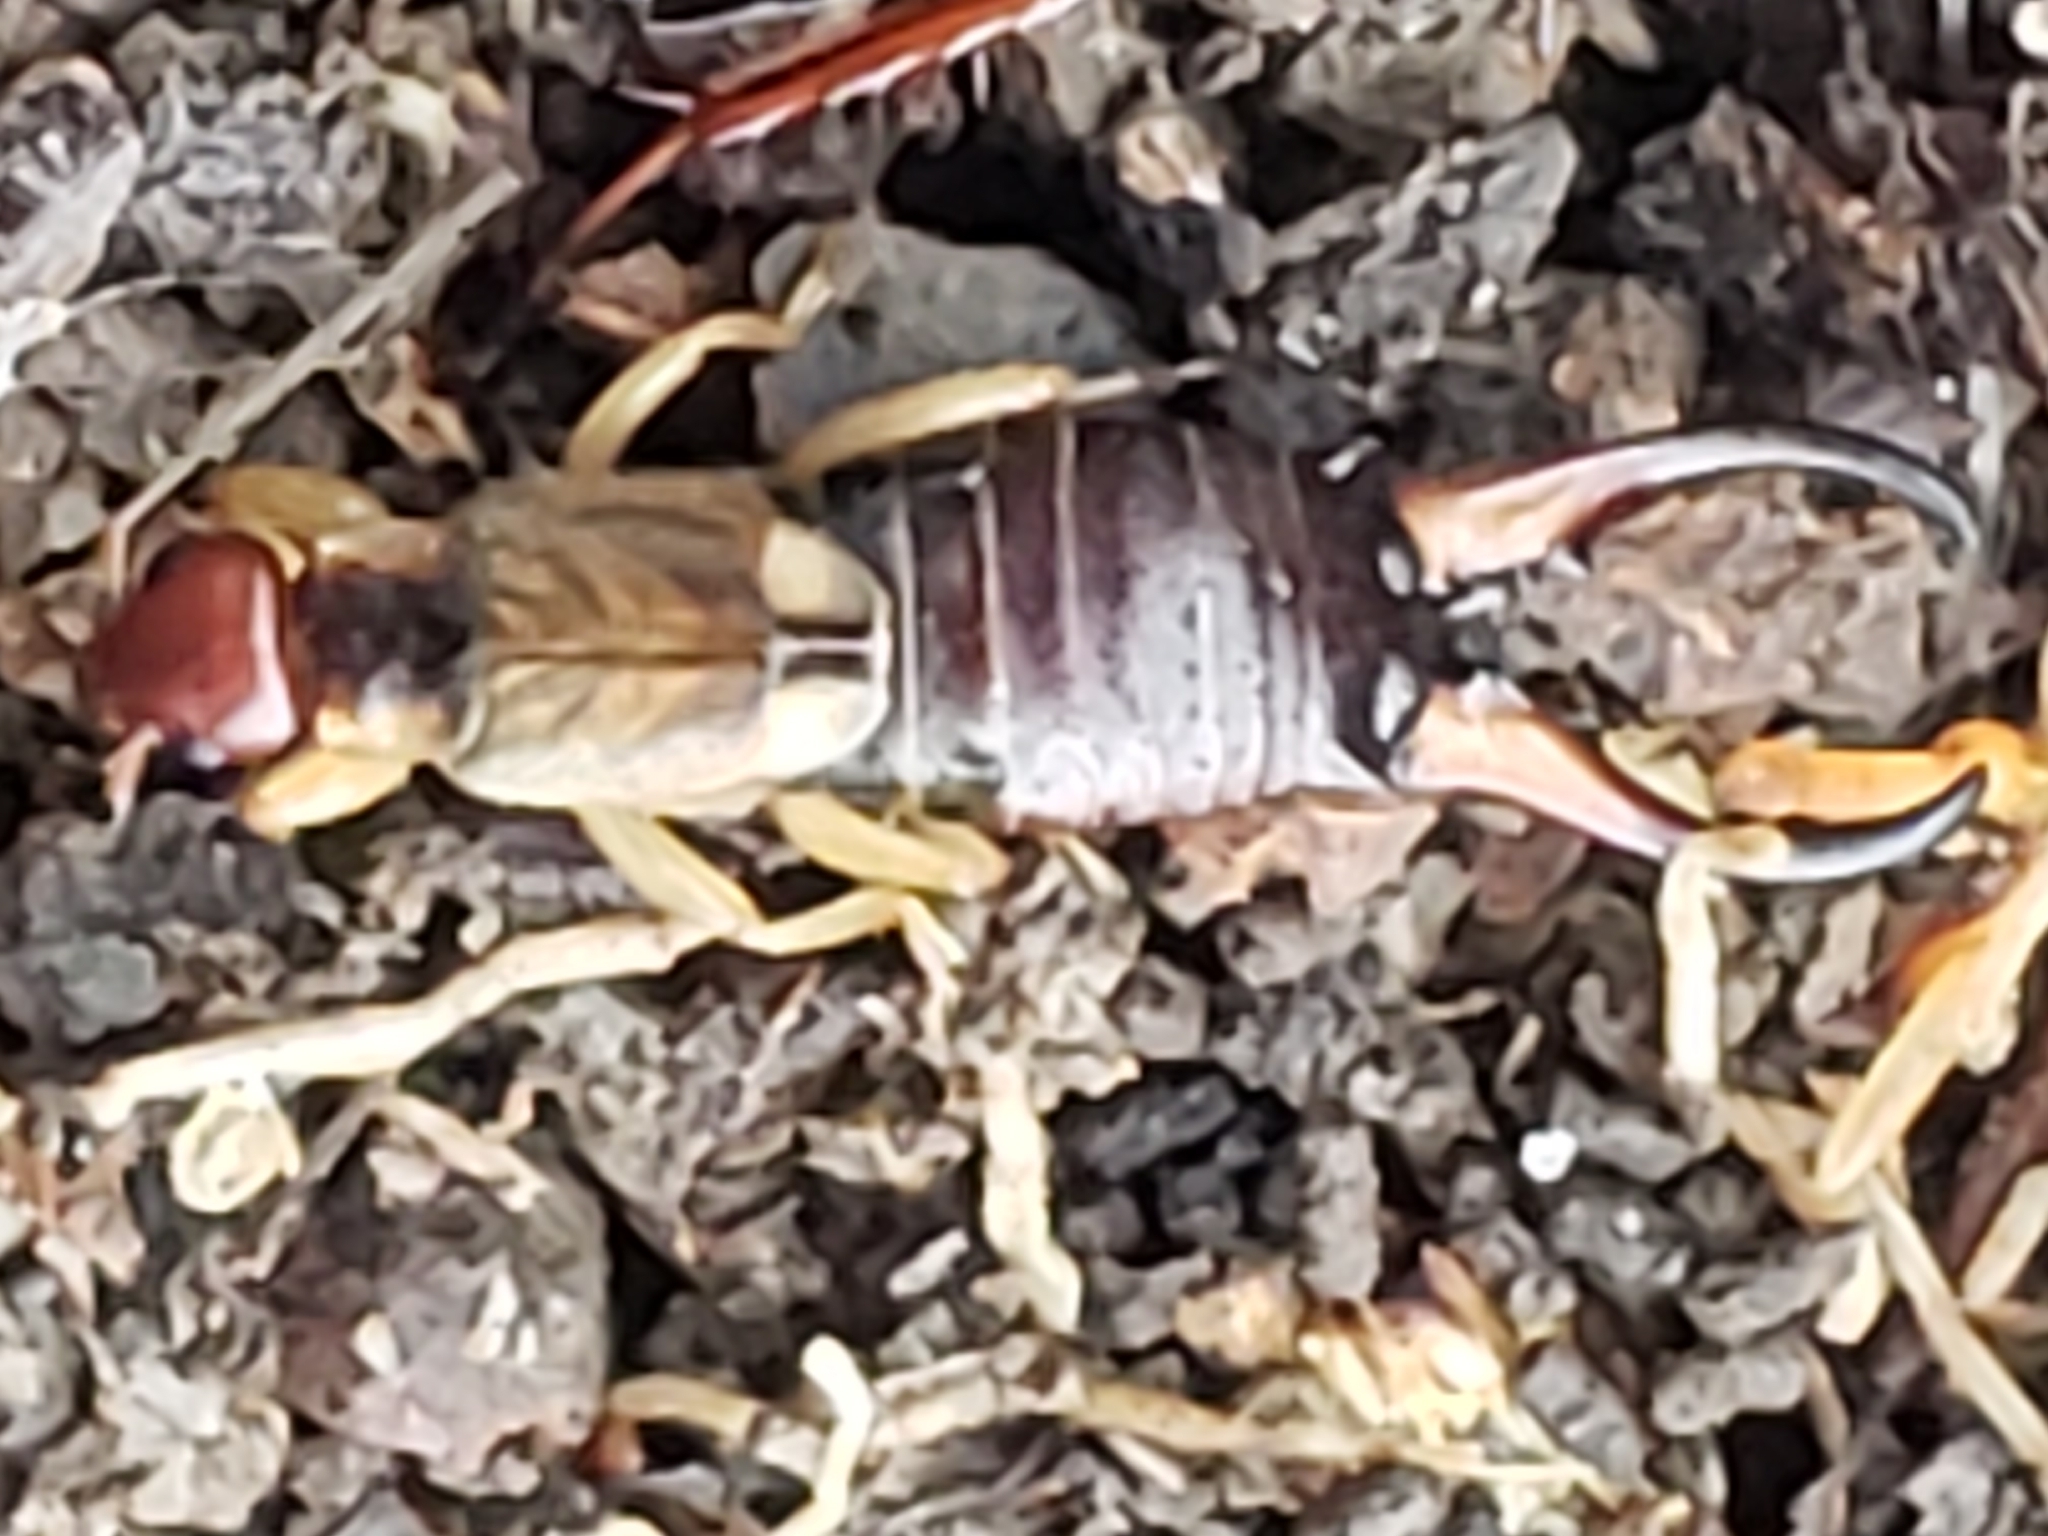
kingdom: Animalia
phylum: Arthropoda
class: Insecta
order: Dermaptera
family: Forficulidae
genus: Forficula
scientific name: Forficula
